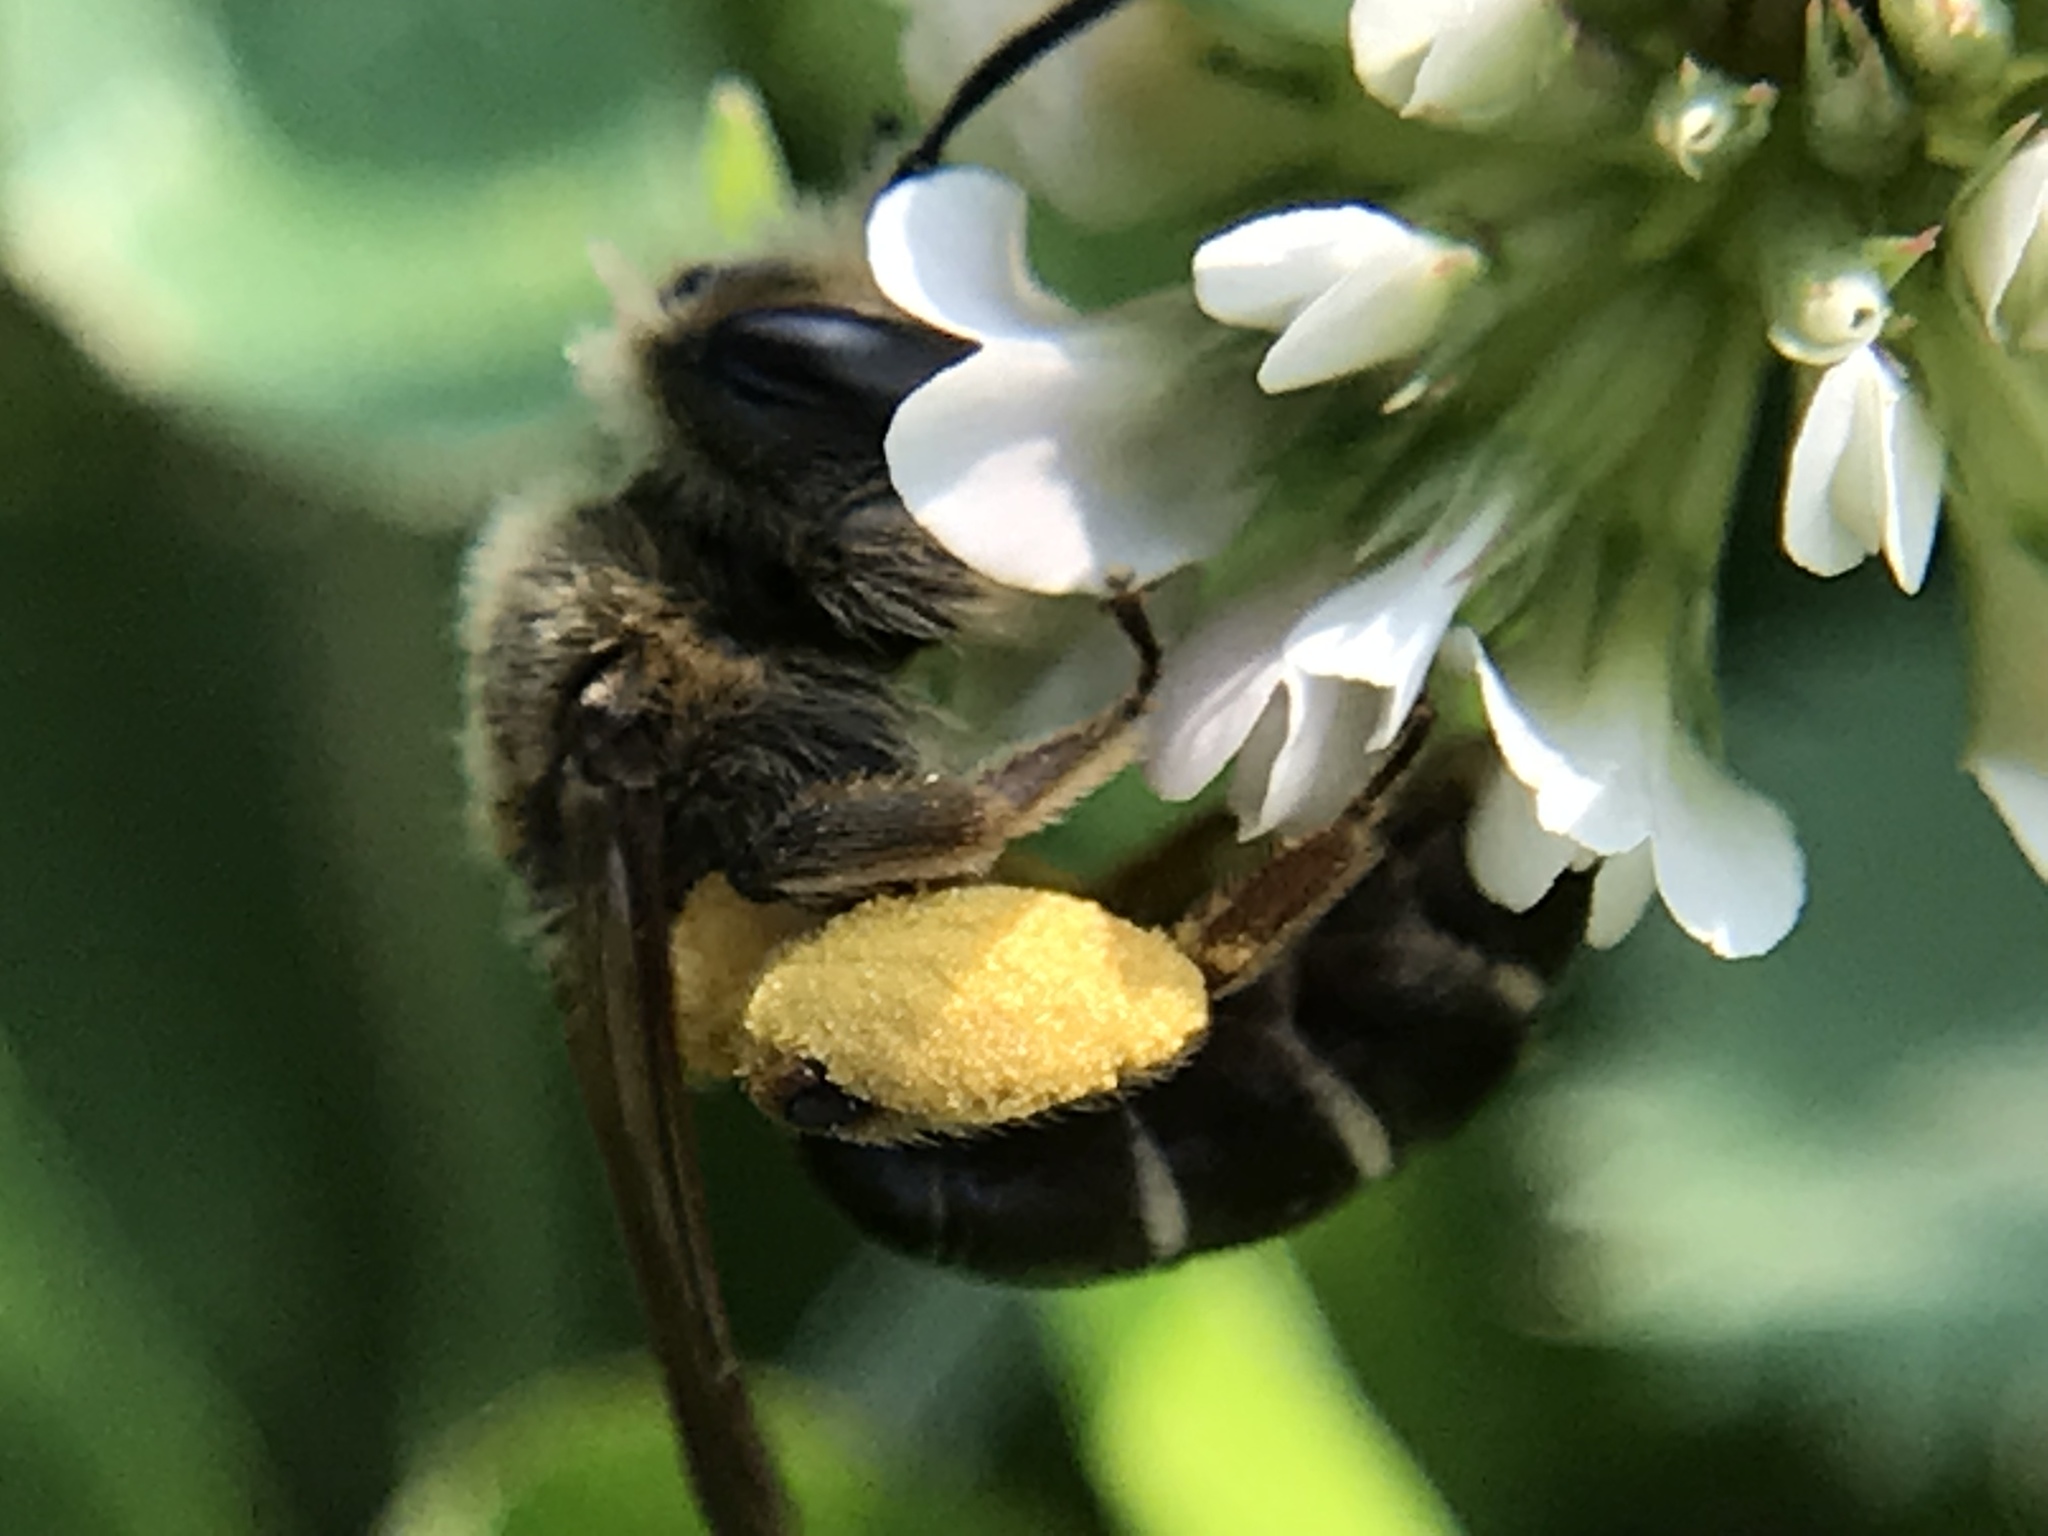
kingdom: Animalia
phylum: Arthropoda
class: Insecta
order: Hymenoptera
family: Andrenidae
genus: Andrena
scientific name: Andrena wilkella
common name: Wilke's mining bee
